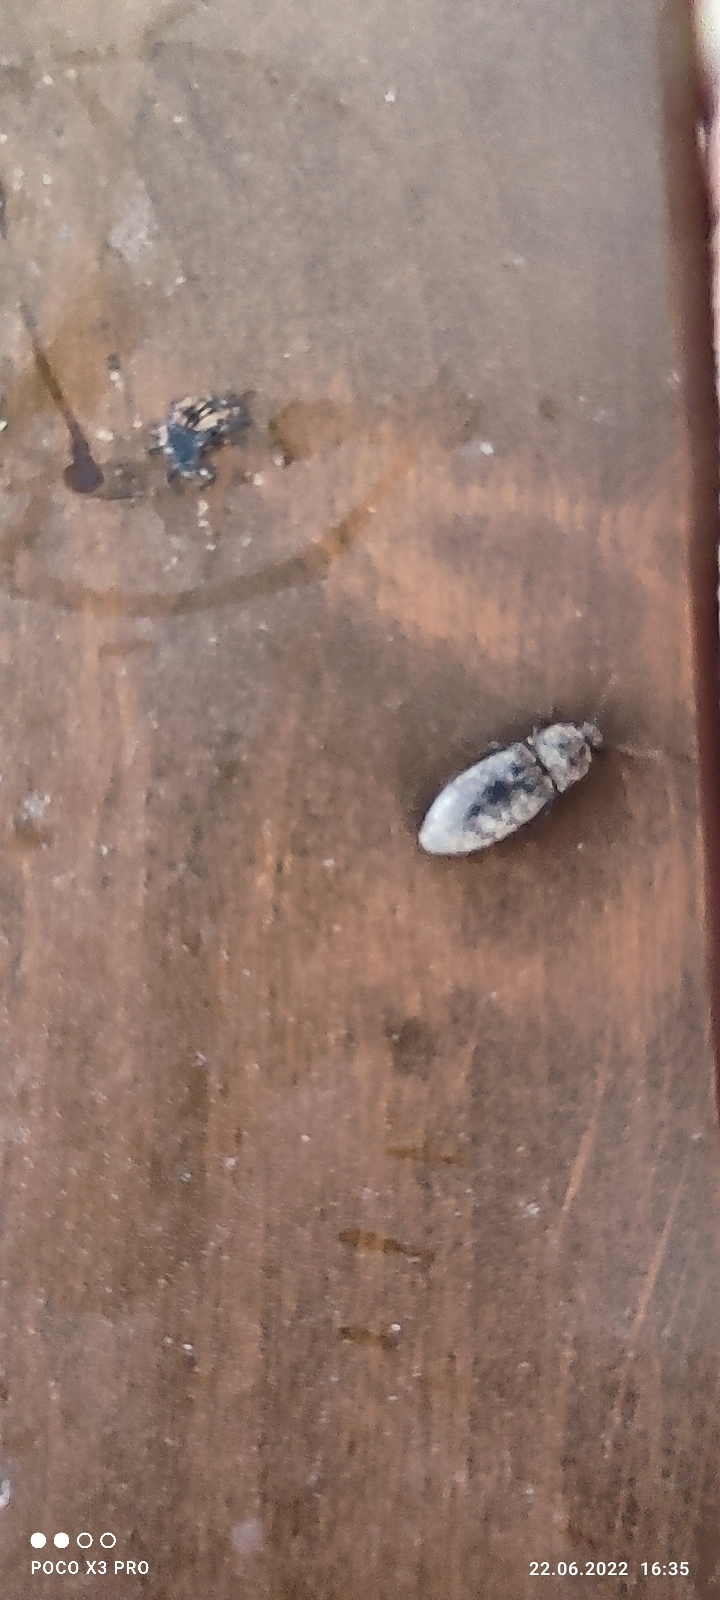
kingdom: Animalia
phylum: Arthropoda
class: Insecta
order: Coleoptera
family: Elateridae
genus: Agrypnus
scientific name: Agrypnus murinus
